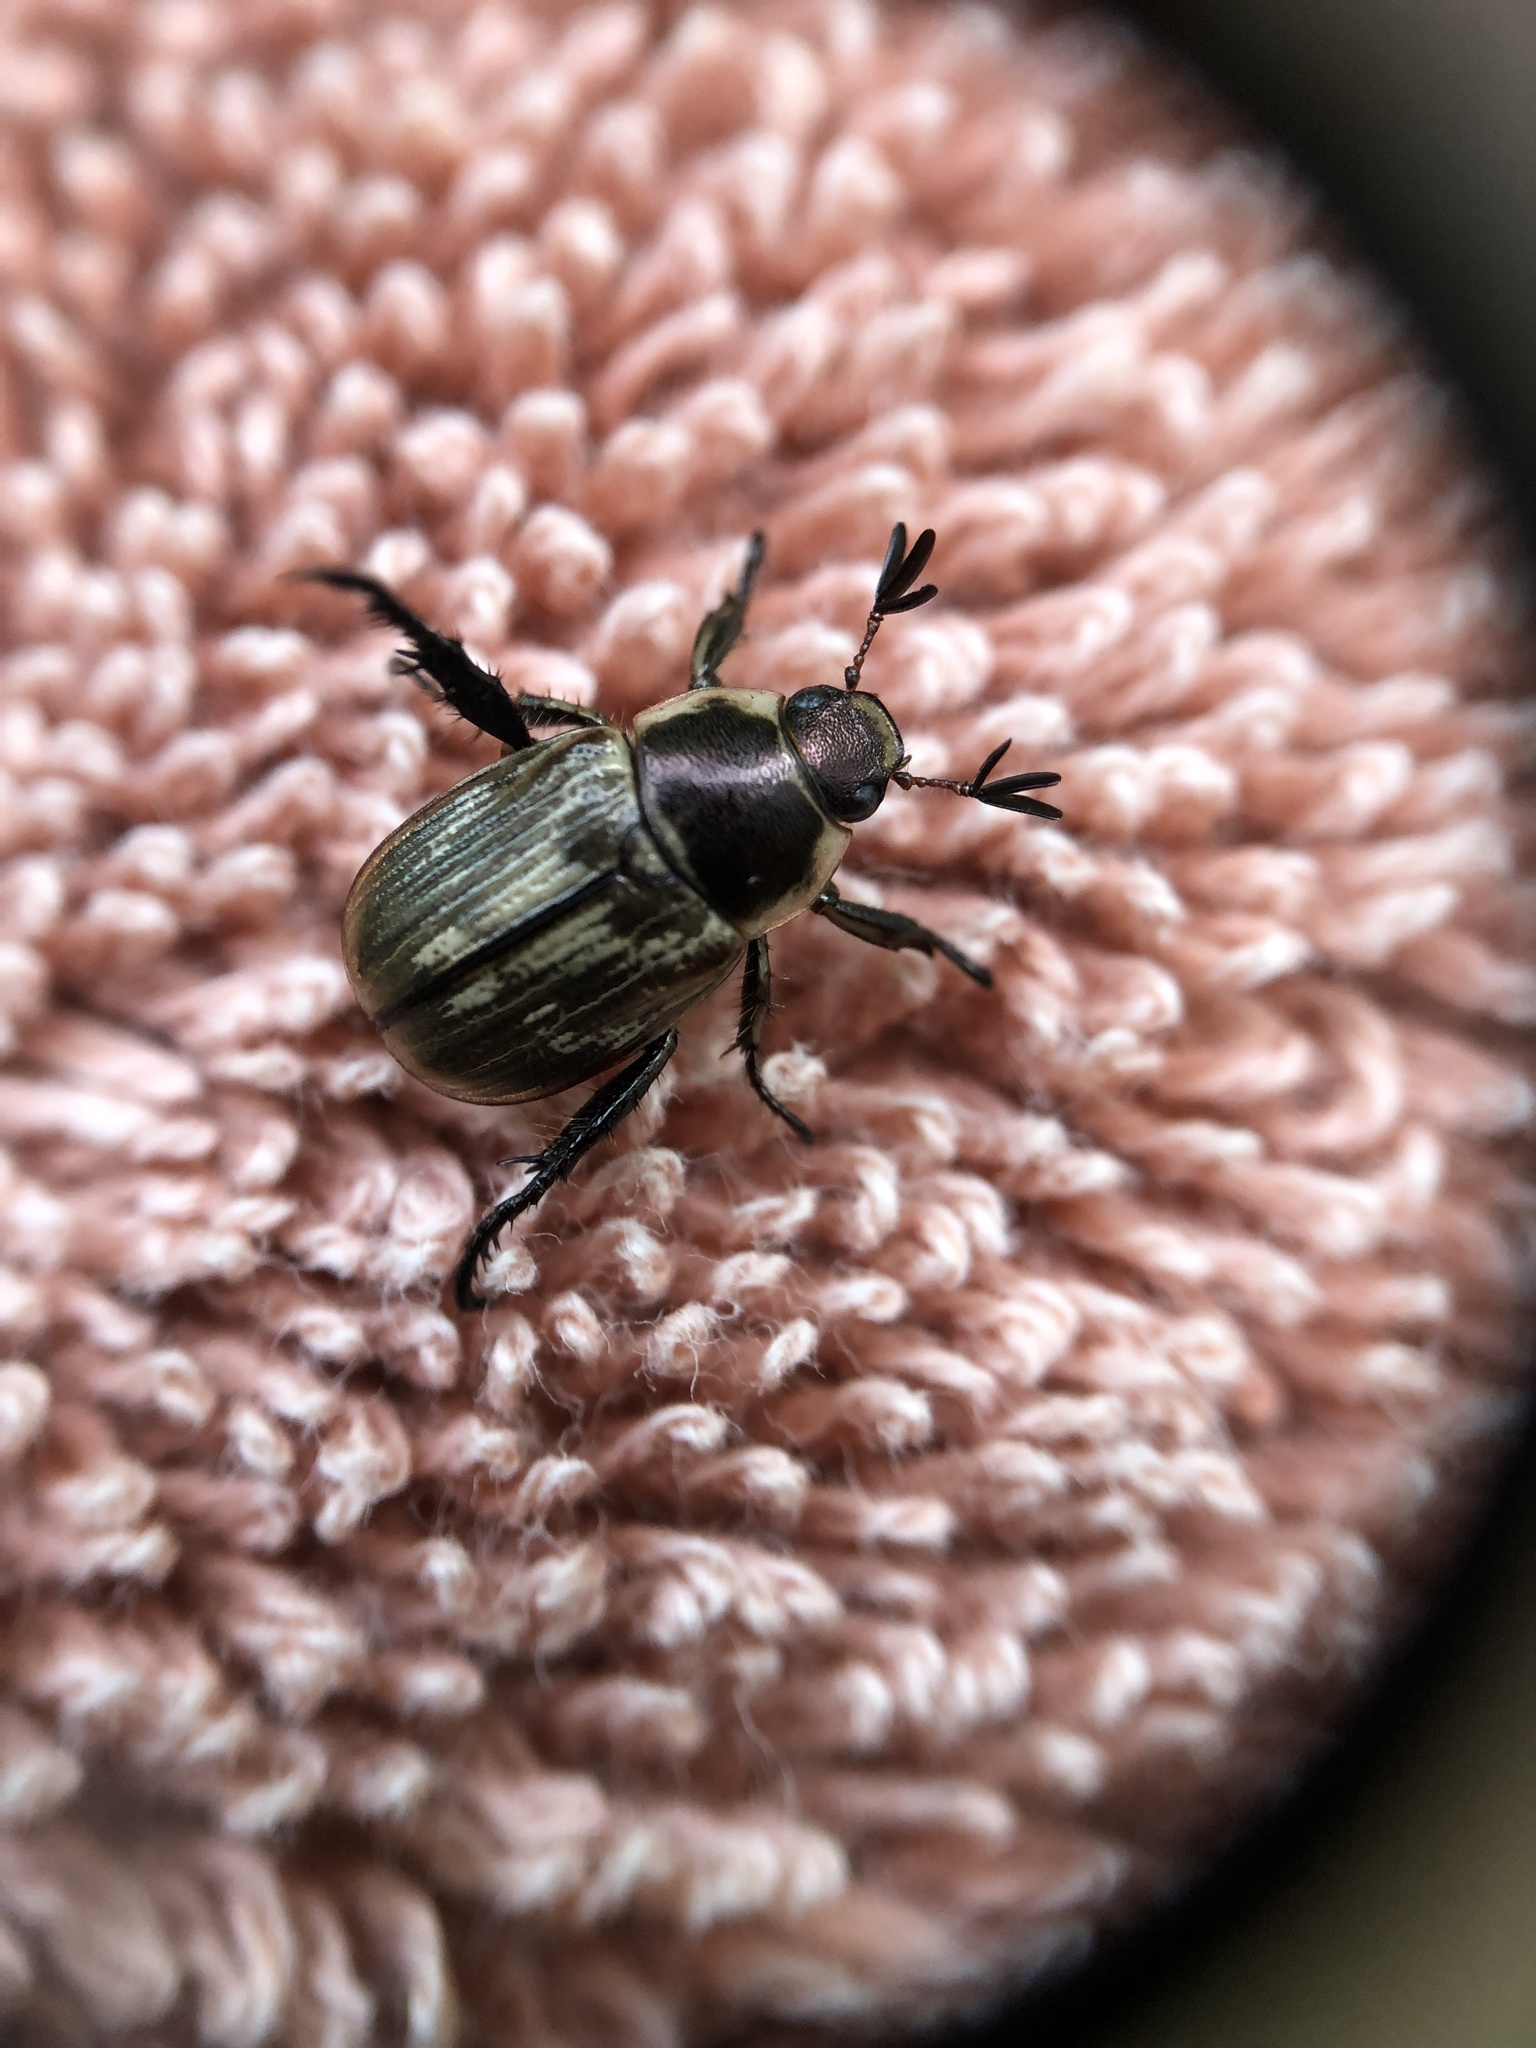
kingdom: Animalia
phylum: Arthropoda
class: Insecta
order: Coleoptera
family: Scarabaeidae
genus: Exomala
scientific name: Exomala orientalis
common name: Oriental beetle
